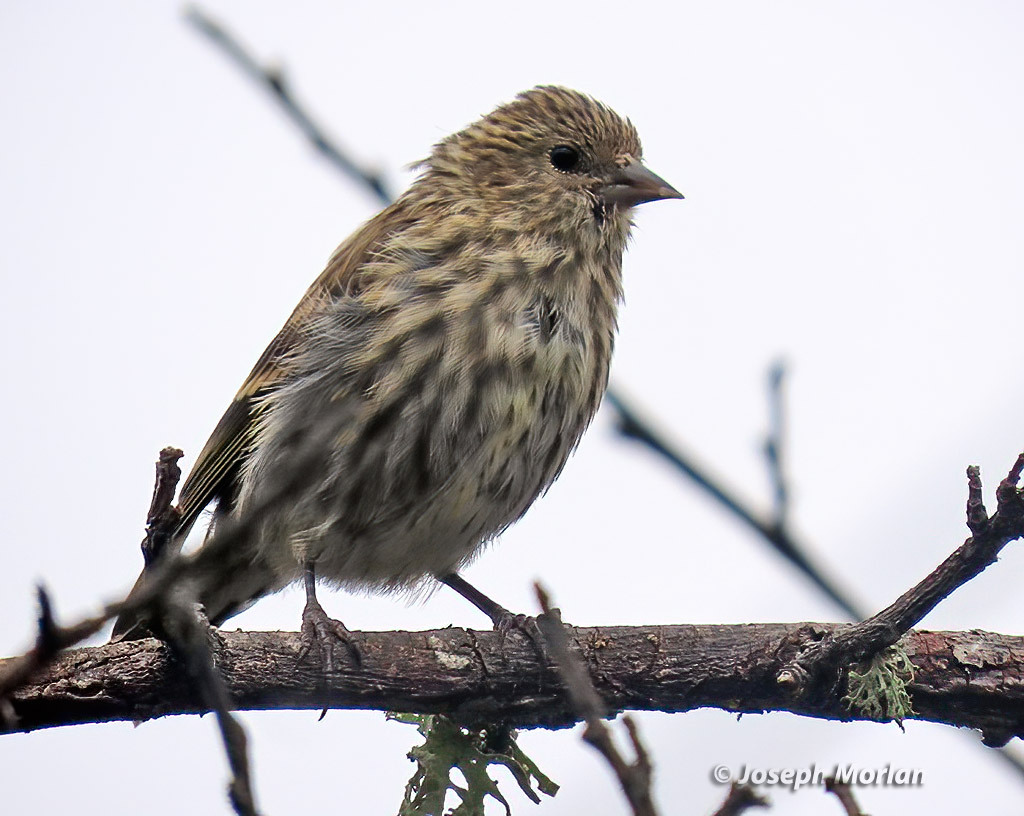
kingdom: Animalia
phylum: Chordata
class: Aves
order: Passeriformes
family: Fringillidae
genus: Spinus
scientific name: Spinus pinus
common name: Pine siskin
